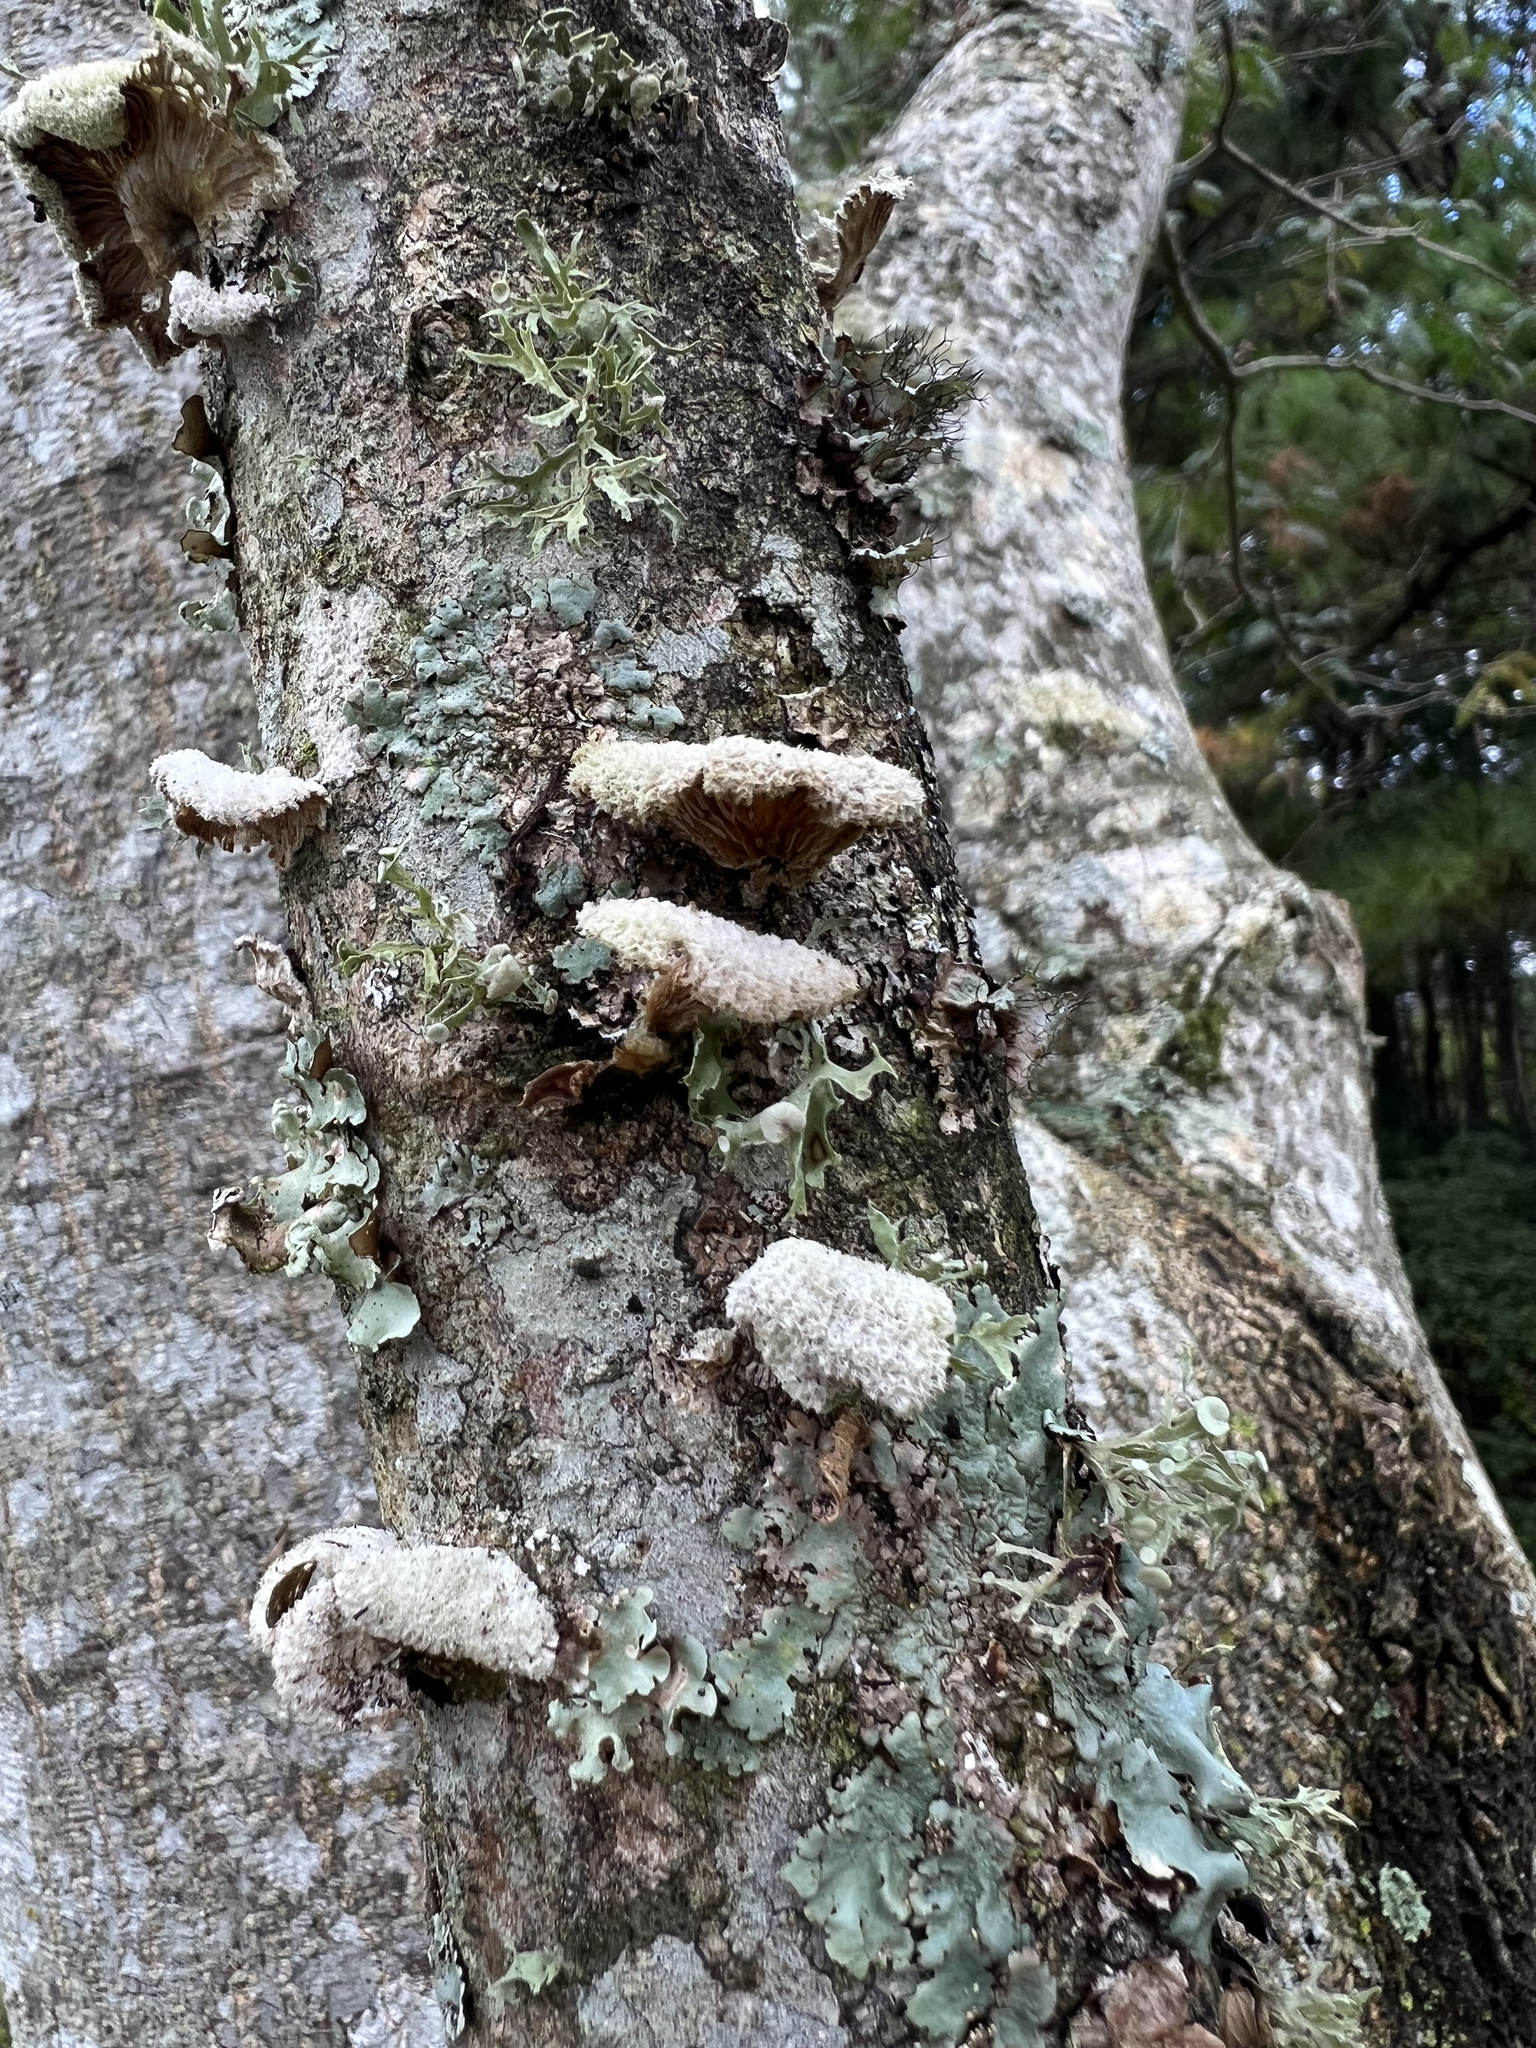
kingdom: Fungi
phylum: Basidiomycota
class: Agaricomycetes
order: Agaricales
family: Schizophyllaceae
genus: Schizophyllum
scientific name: Schizophyllum commune
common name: Common porecrust
